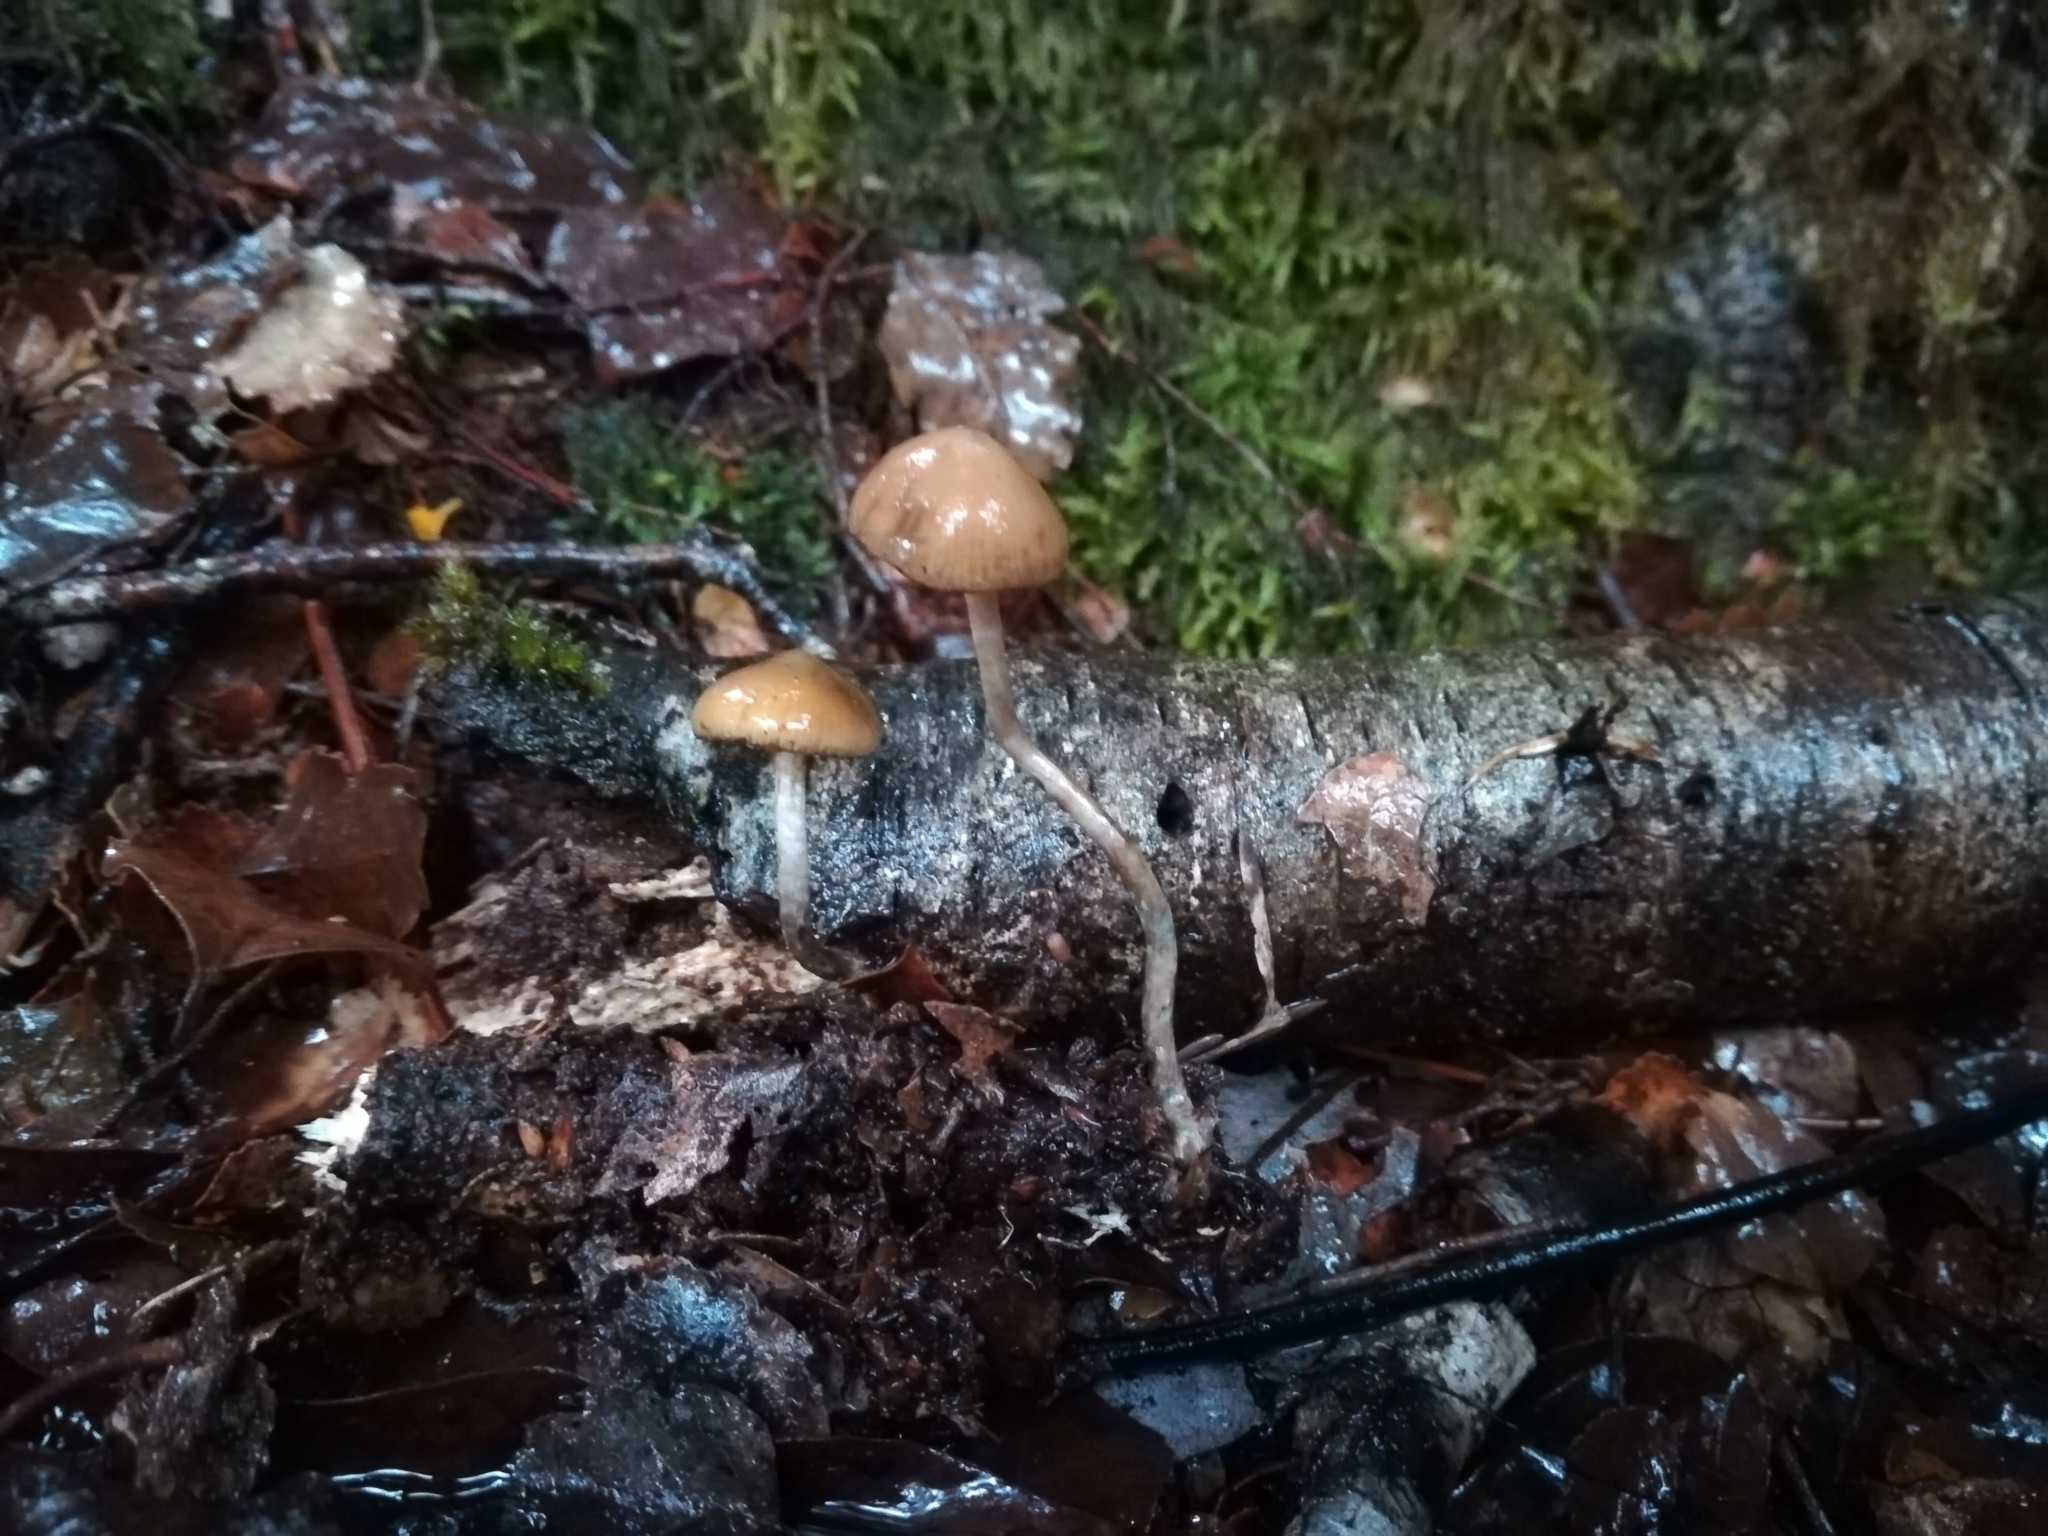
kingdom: Fungi
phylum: Basidiomycota
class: Agaricomycetes
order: Agaricales
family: Hymenogastraceae
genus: Psilocybe
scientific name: Psilocybe makarorae
